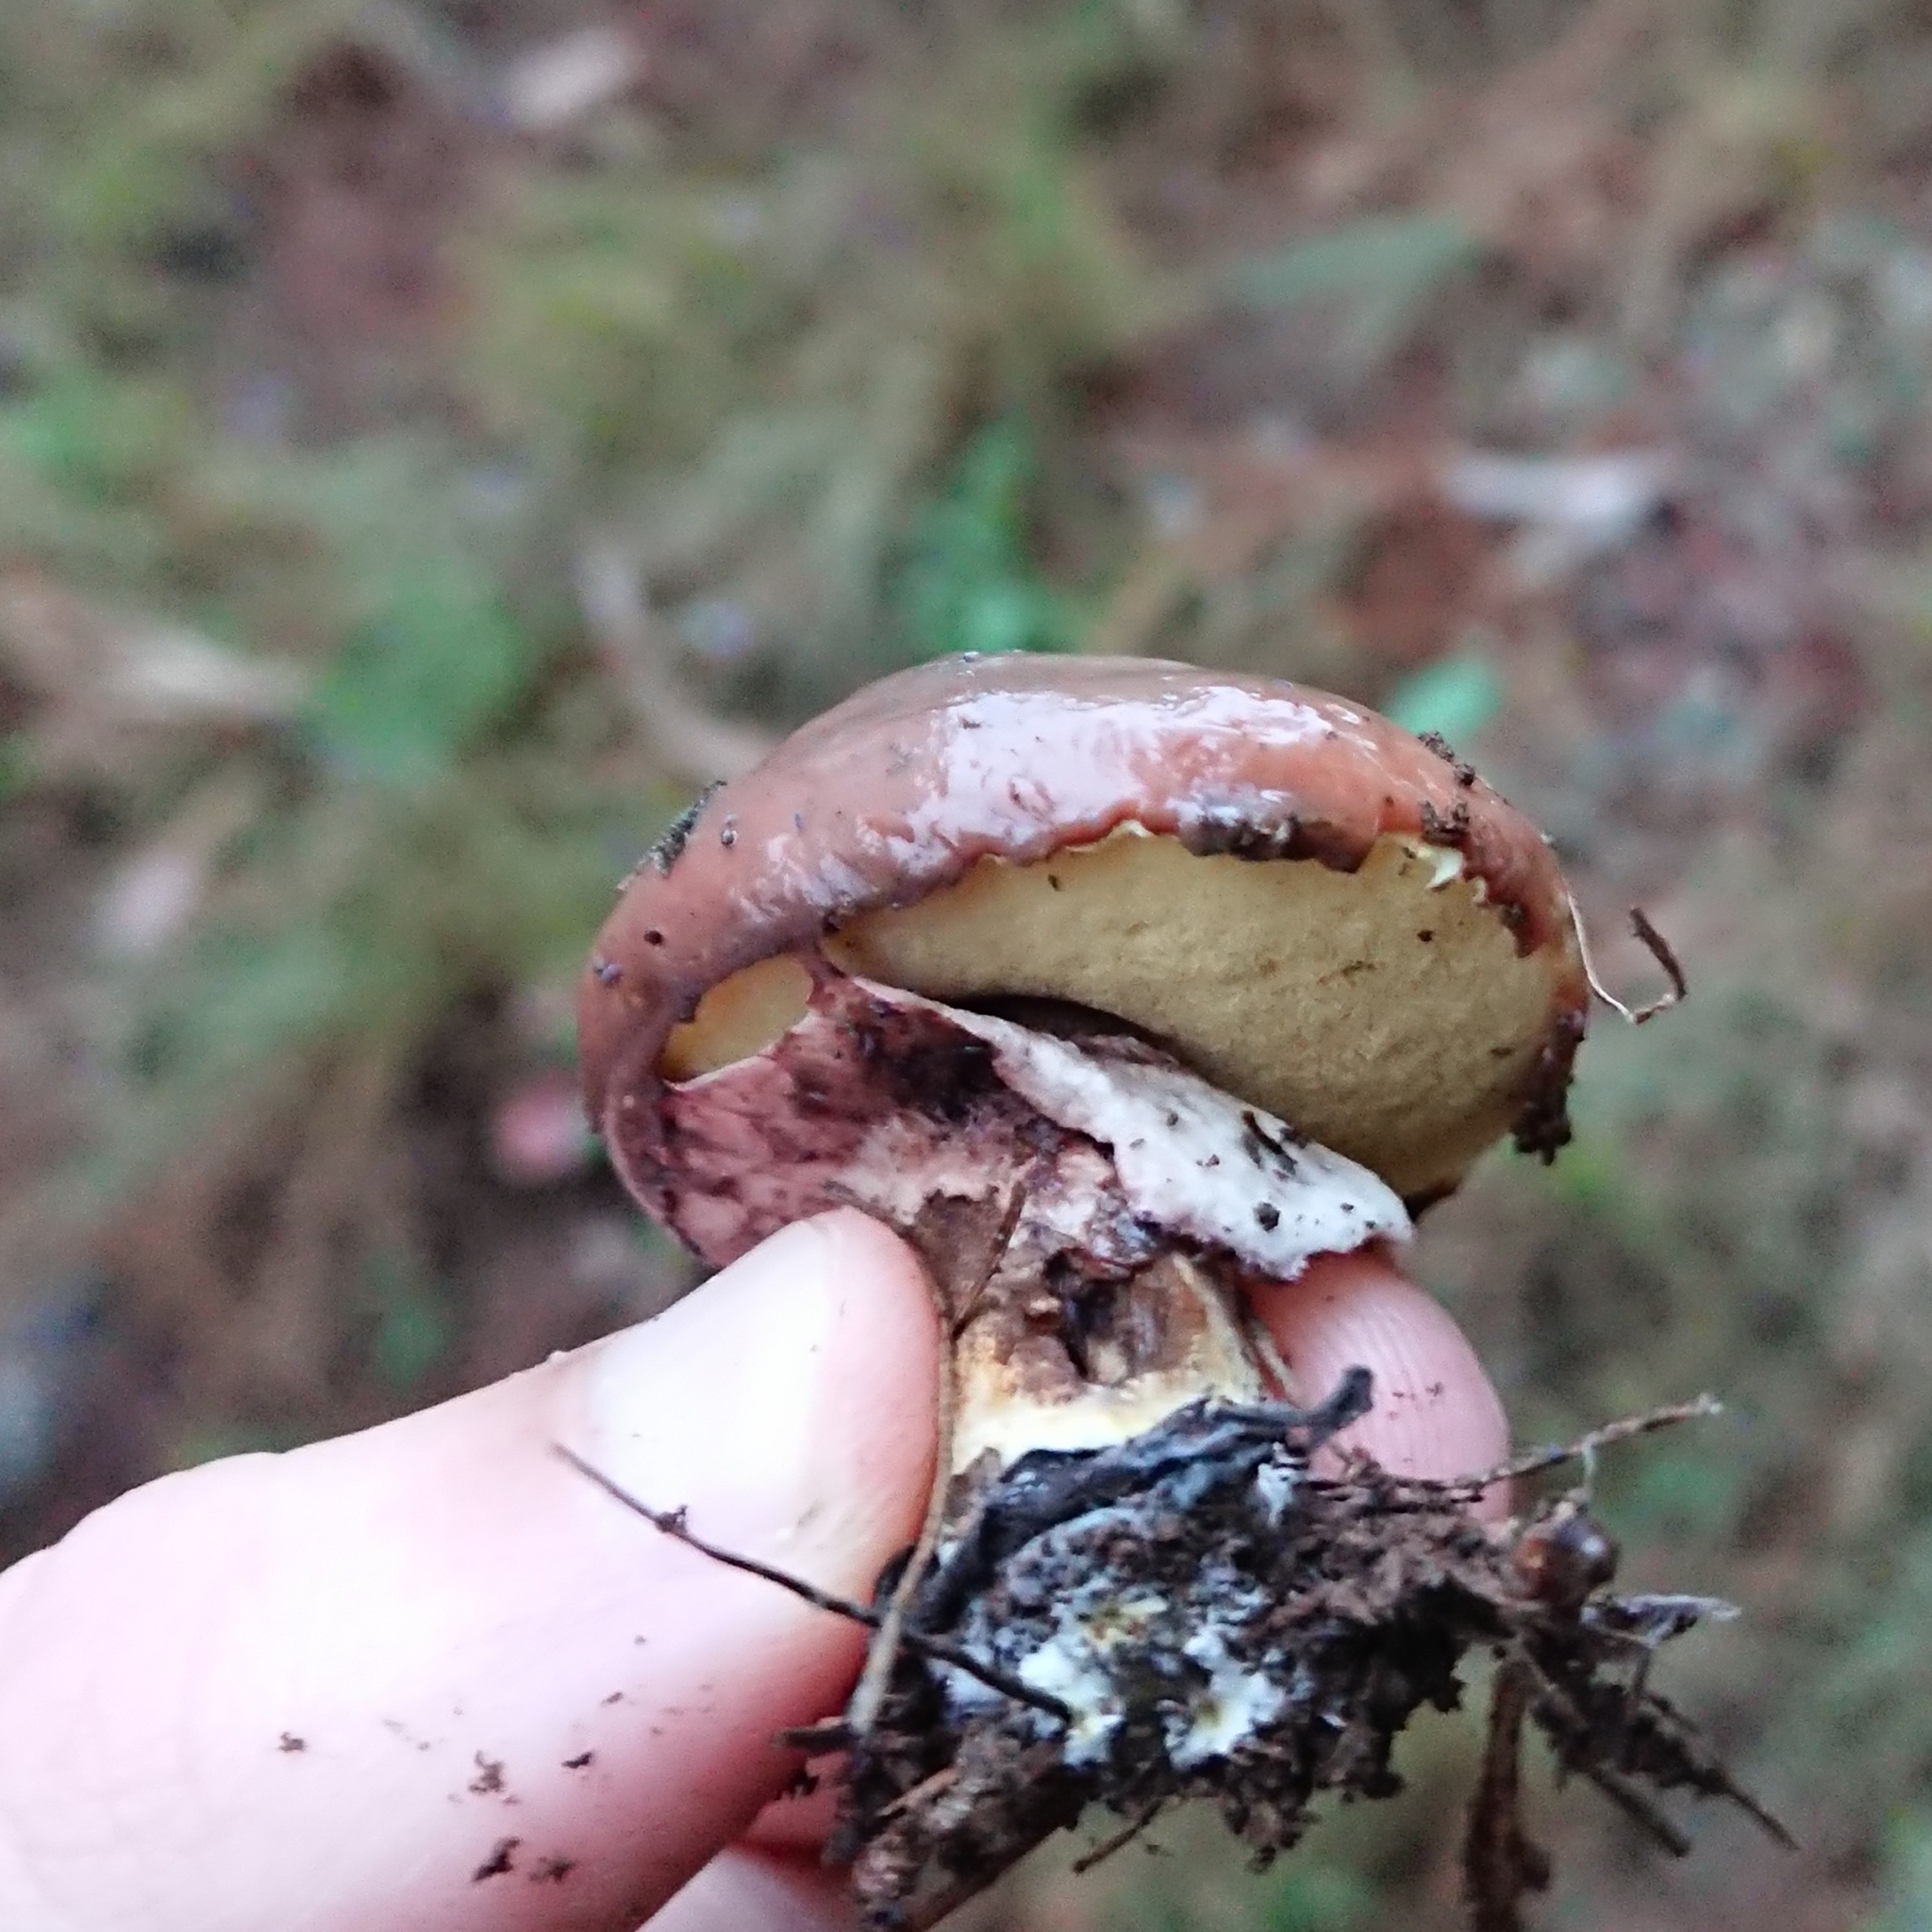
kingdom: Fungi
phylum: Basidiomycota
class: Agaricomycetes
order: Boletales
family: Suillaceae
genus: Suillus
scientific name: Suillus luteus
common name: Slippery jack
